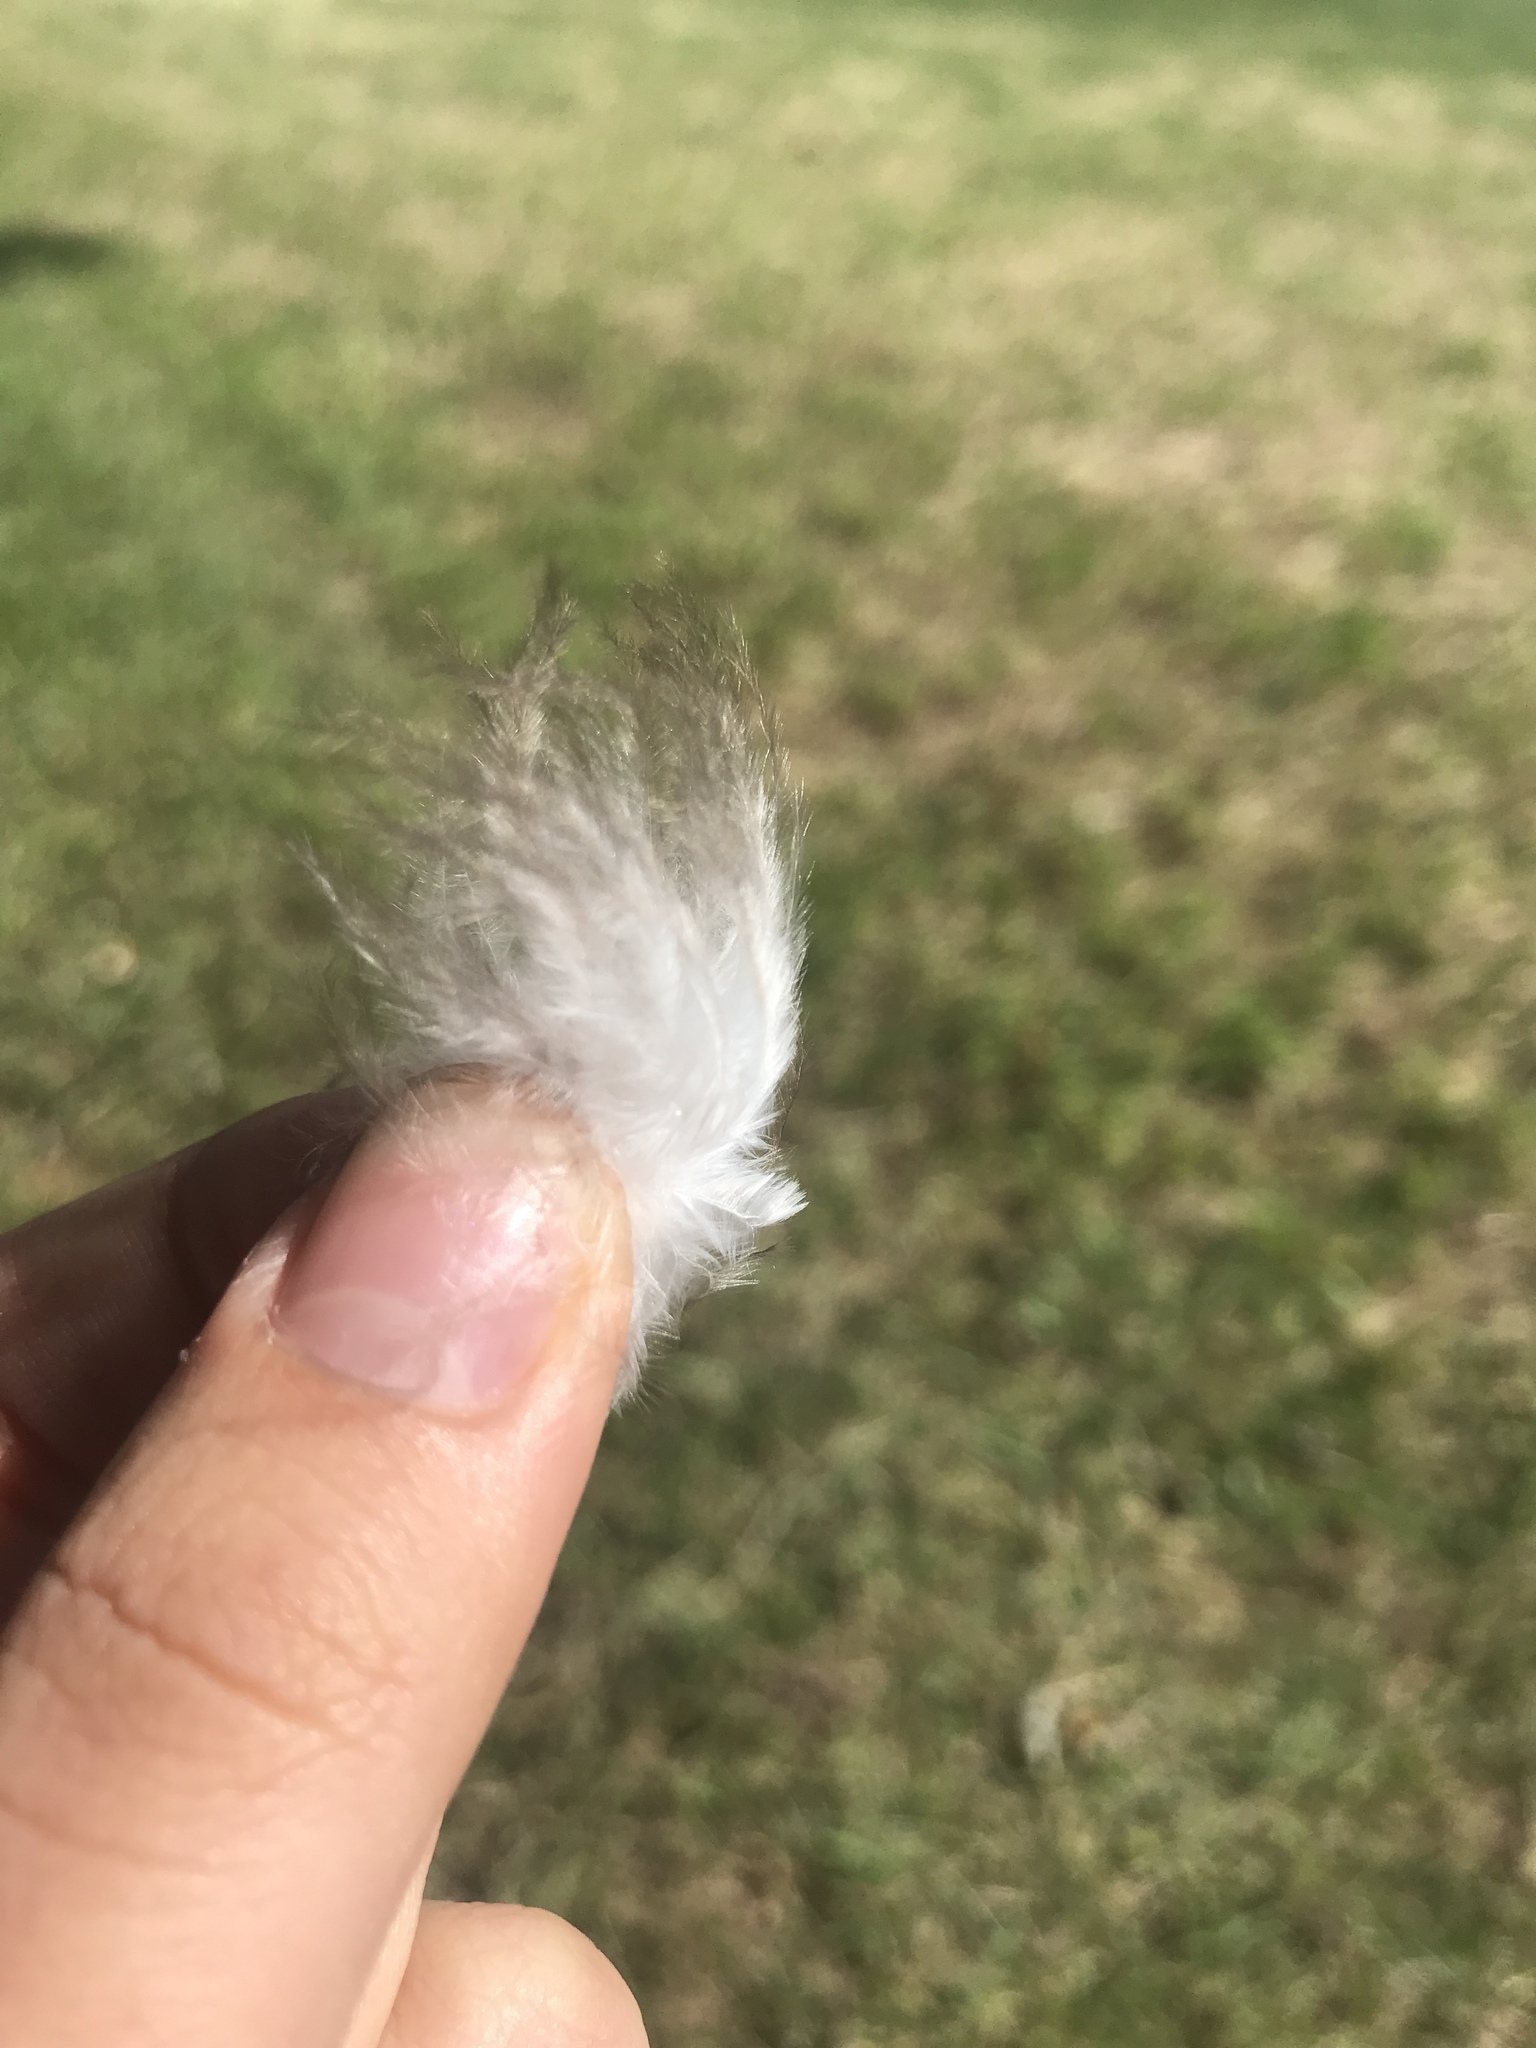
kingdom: Animalia
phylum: Chordata
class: Aves
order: Accipitriformes
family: Cathartidae
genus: Cathartes
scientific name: Cathartes aura
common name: Turkey vulture
